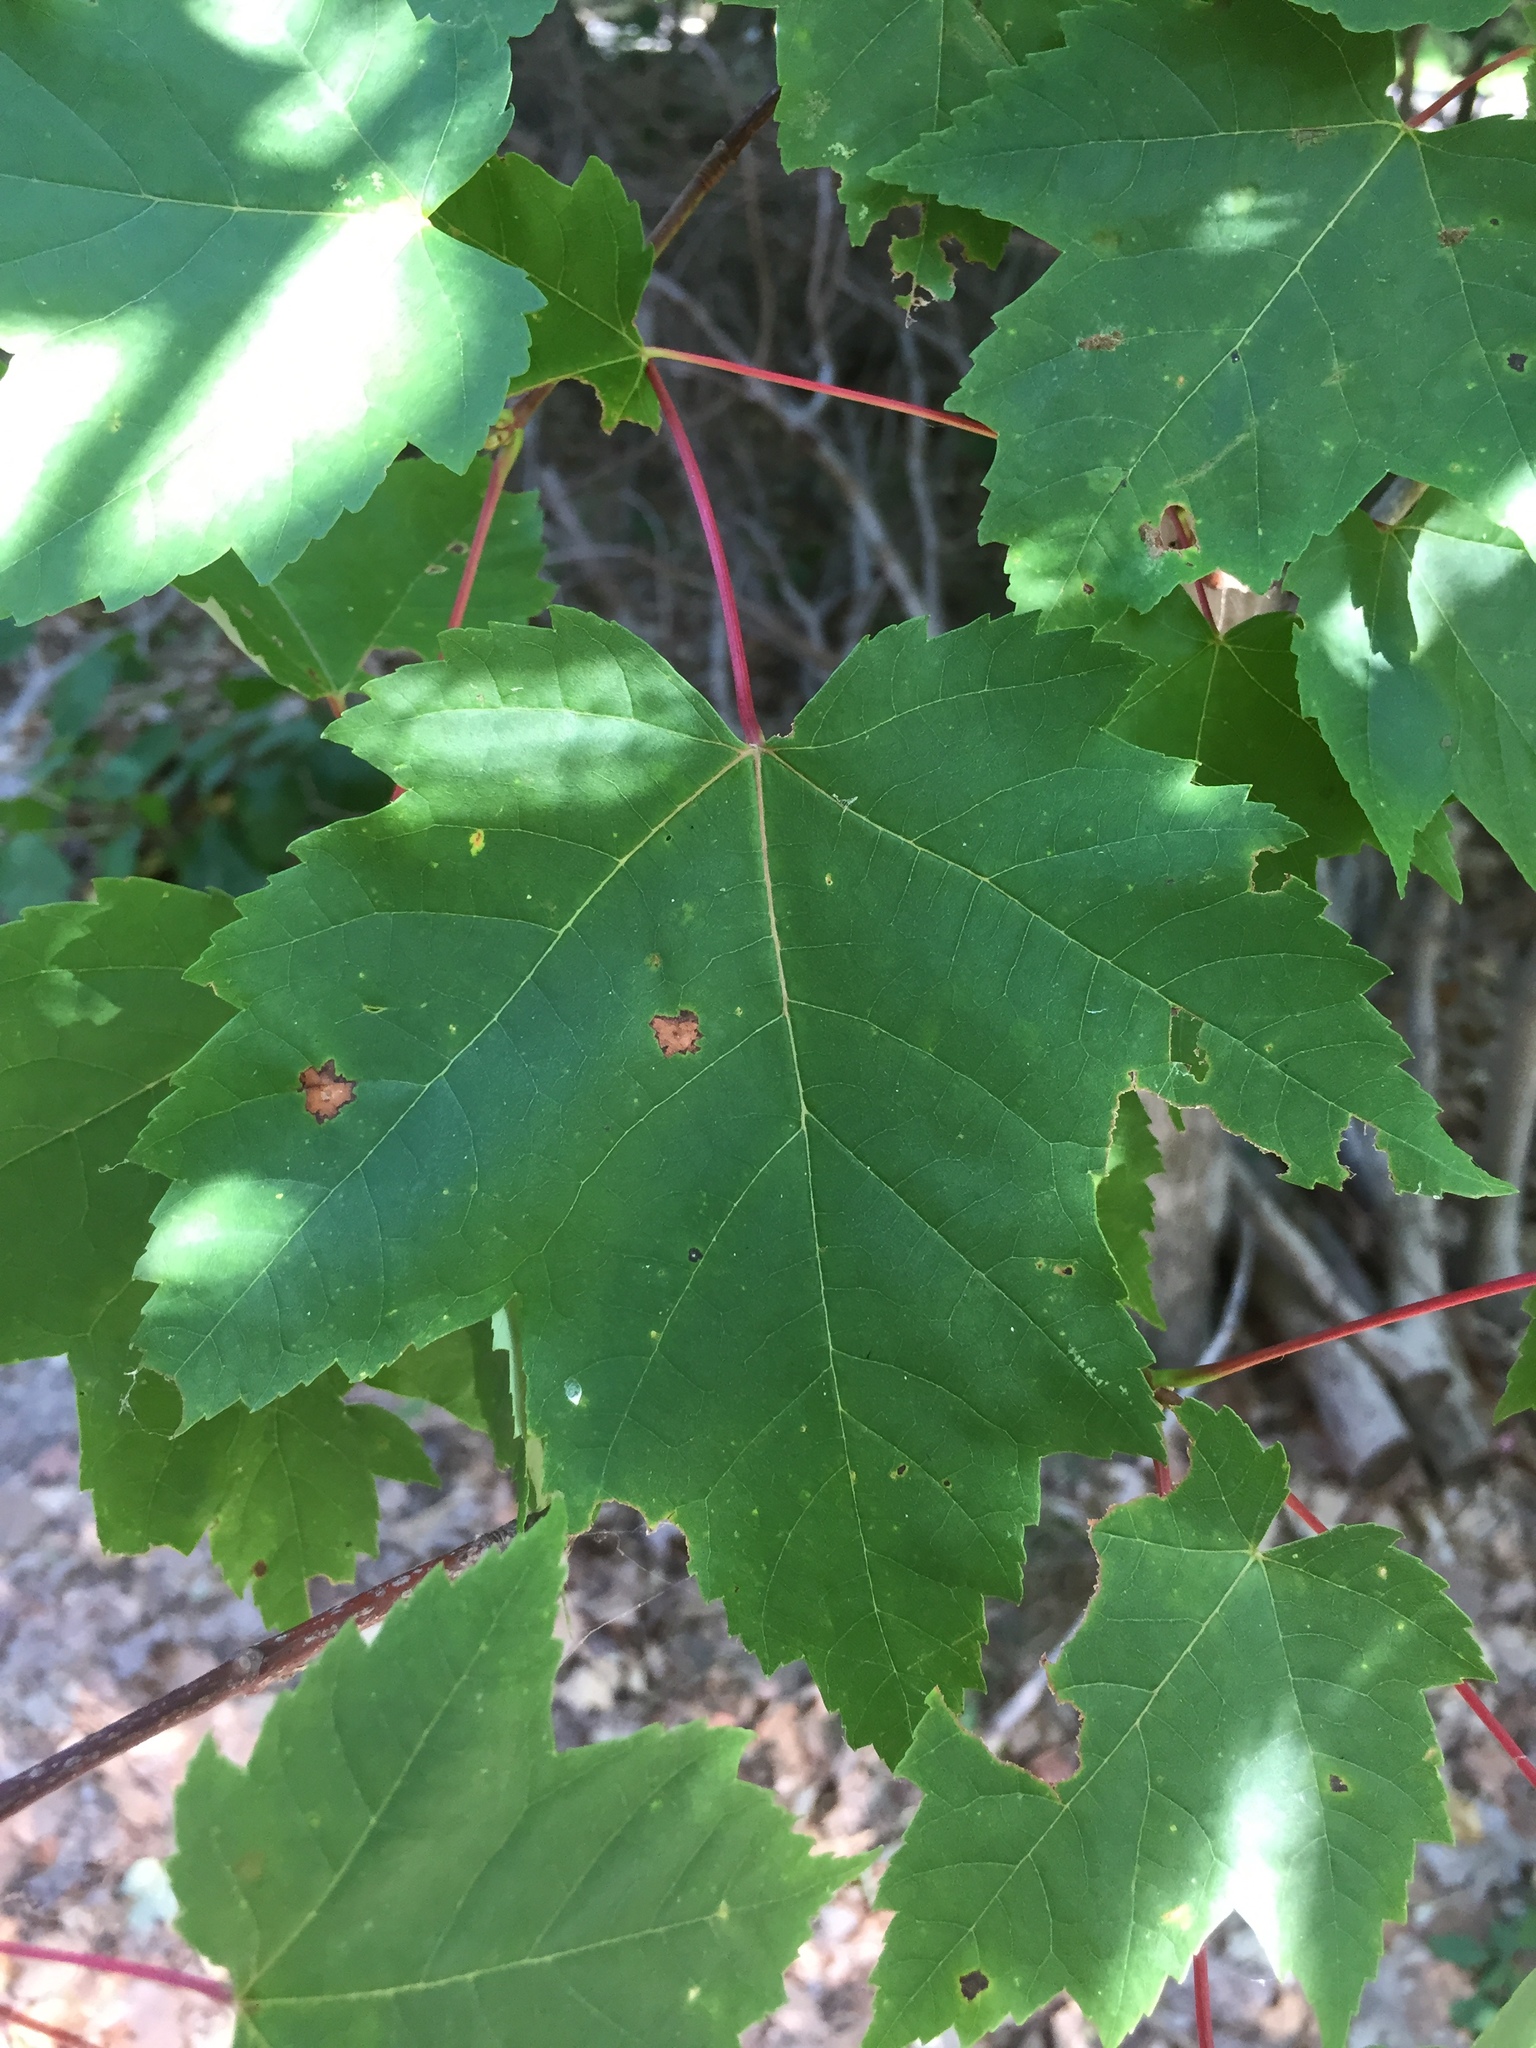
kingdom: Plantae
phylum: Tracheophyta
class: Magnoliopsida
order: Sapindales
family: Sapindaceae
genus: Acer
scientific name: Acer rubrum
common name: Red maple
